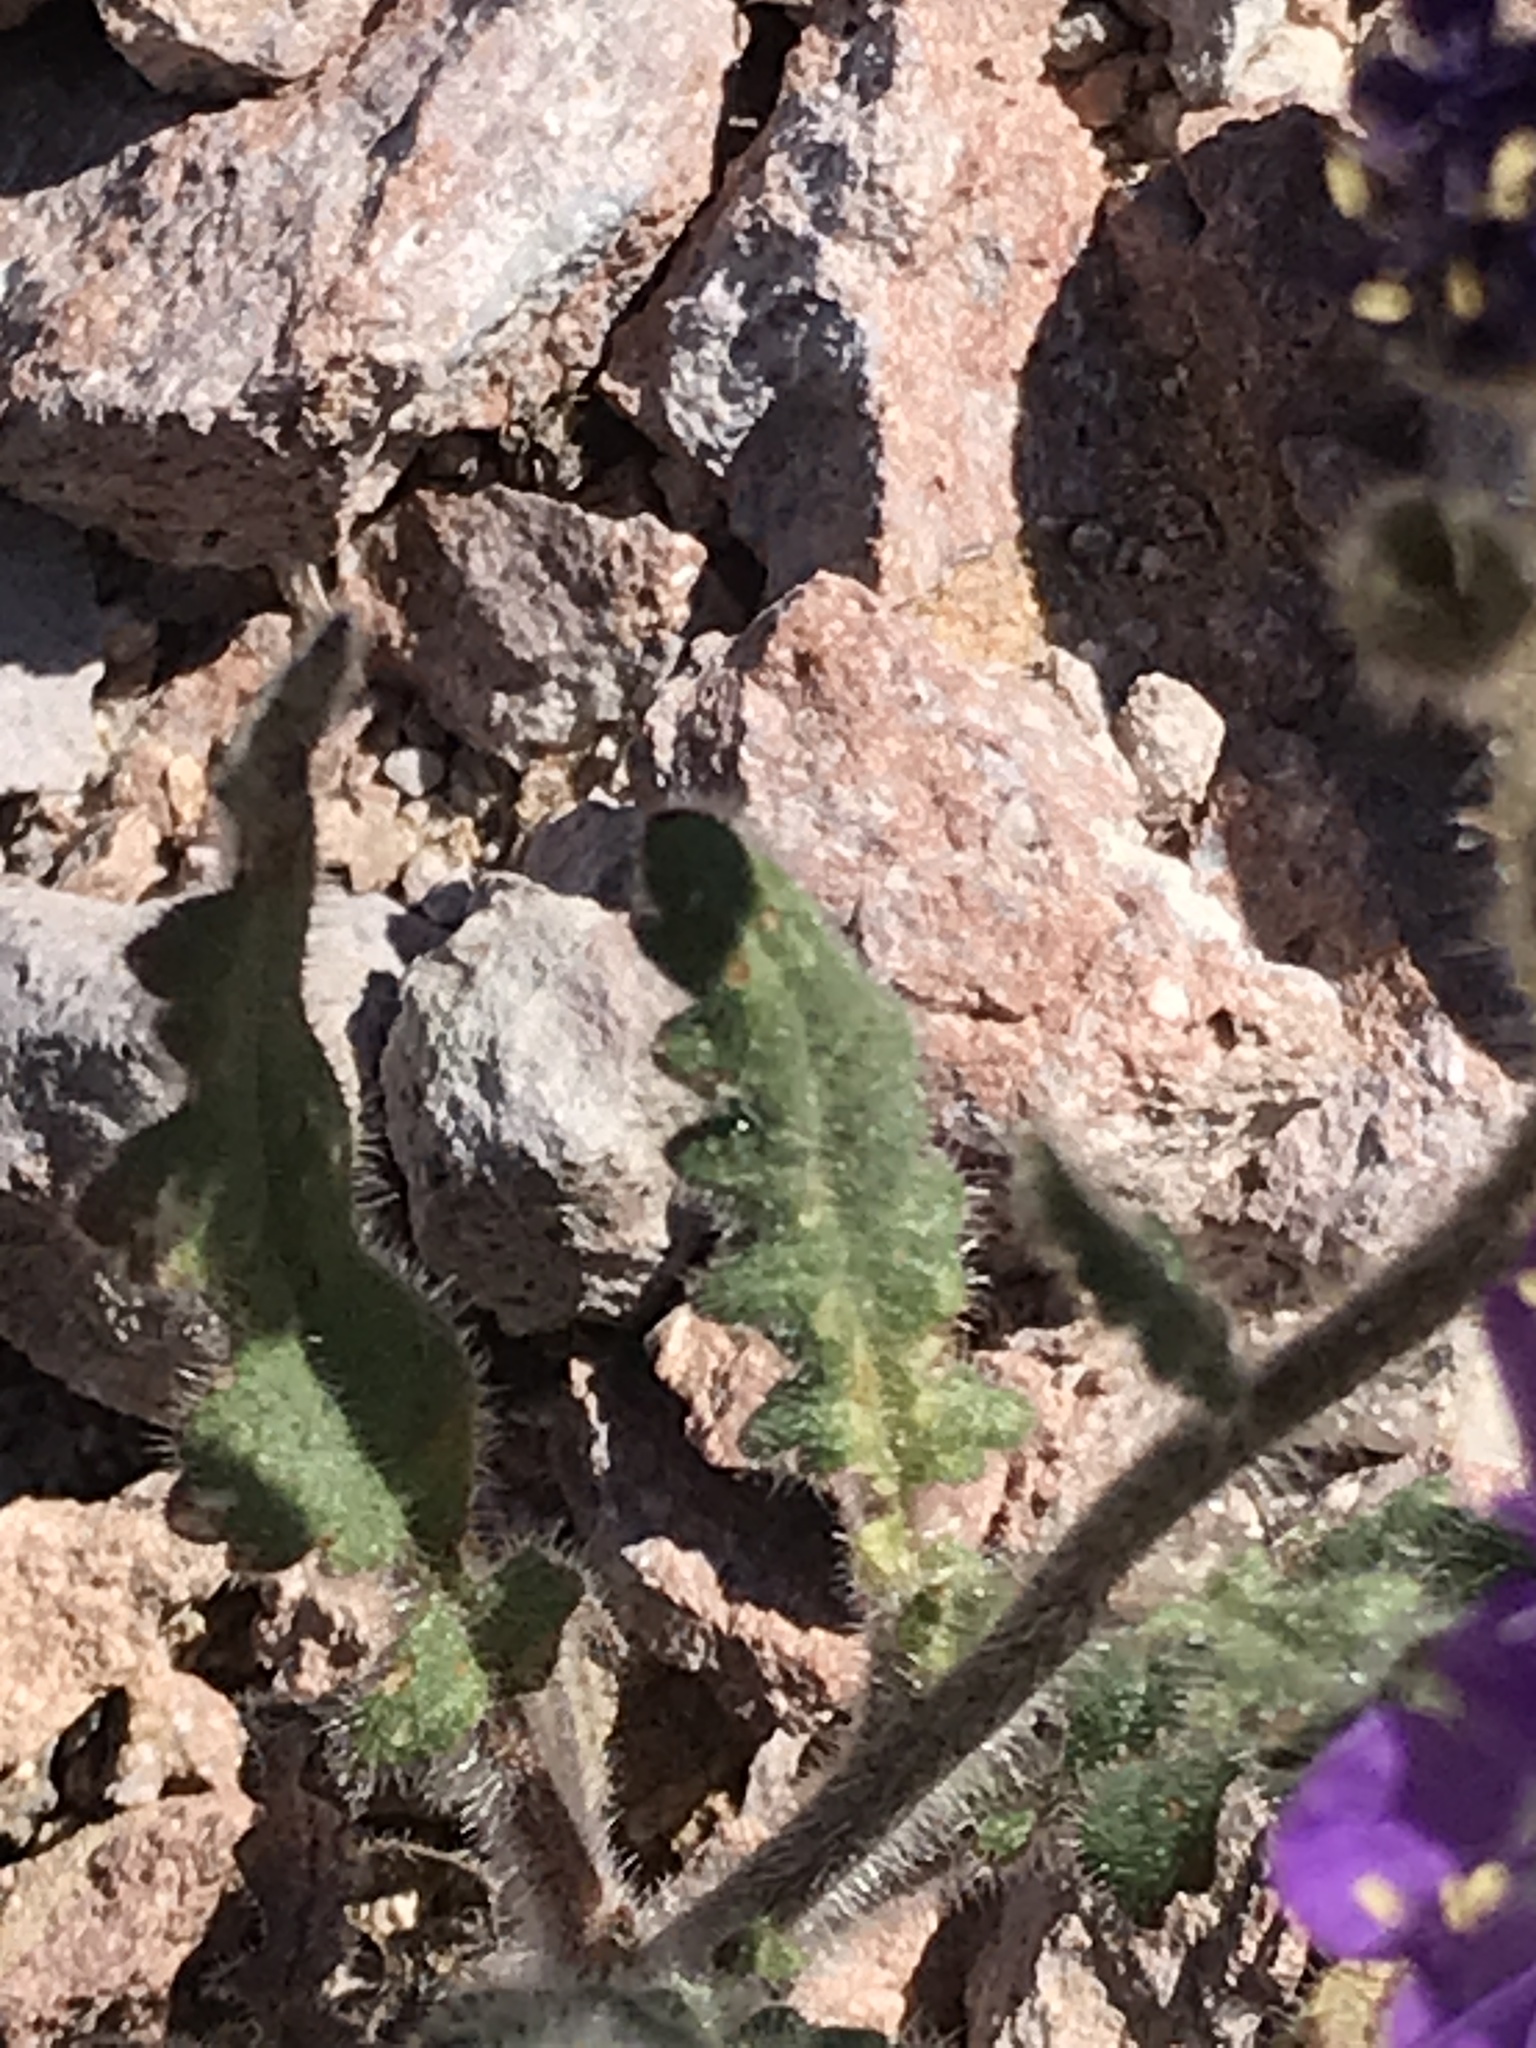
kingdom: Plantae
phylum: Tracheophyta
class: Magnoliopsida
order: Boraginales
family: Hydrophyllaceae
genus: Phacelia
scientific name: Phacelia crenulata
